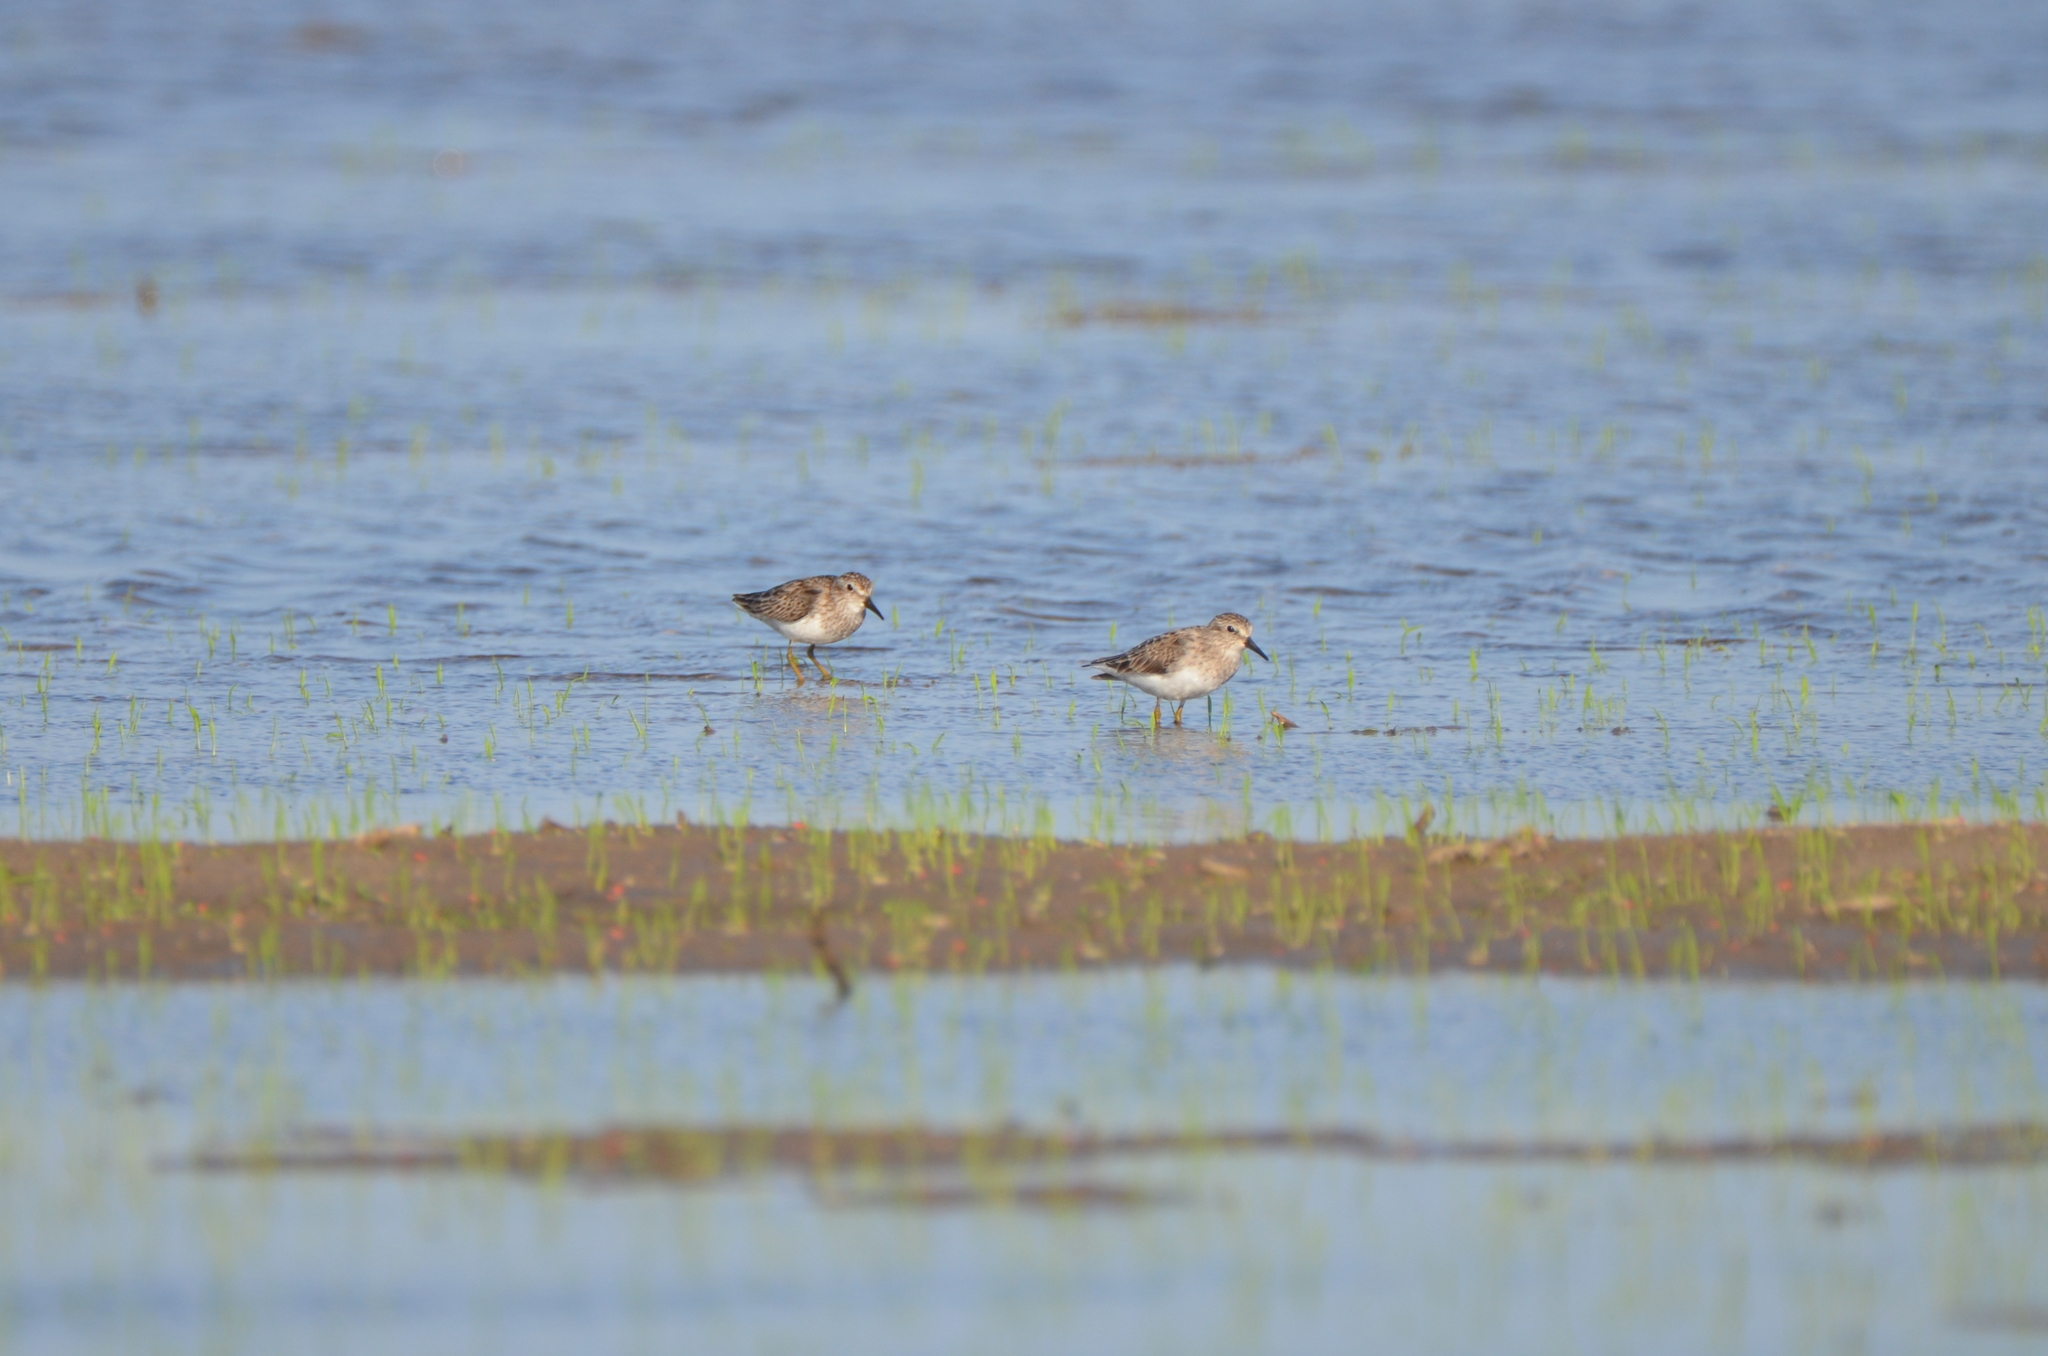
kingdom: Animalia
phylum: Chordata
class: Aves
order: Charadriiformes
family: Scolopacidae
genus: Calidris
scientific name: Calidris minutilla
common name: Least sandpiper
